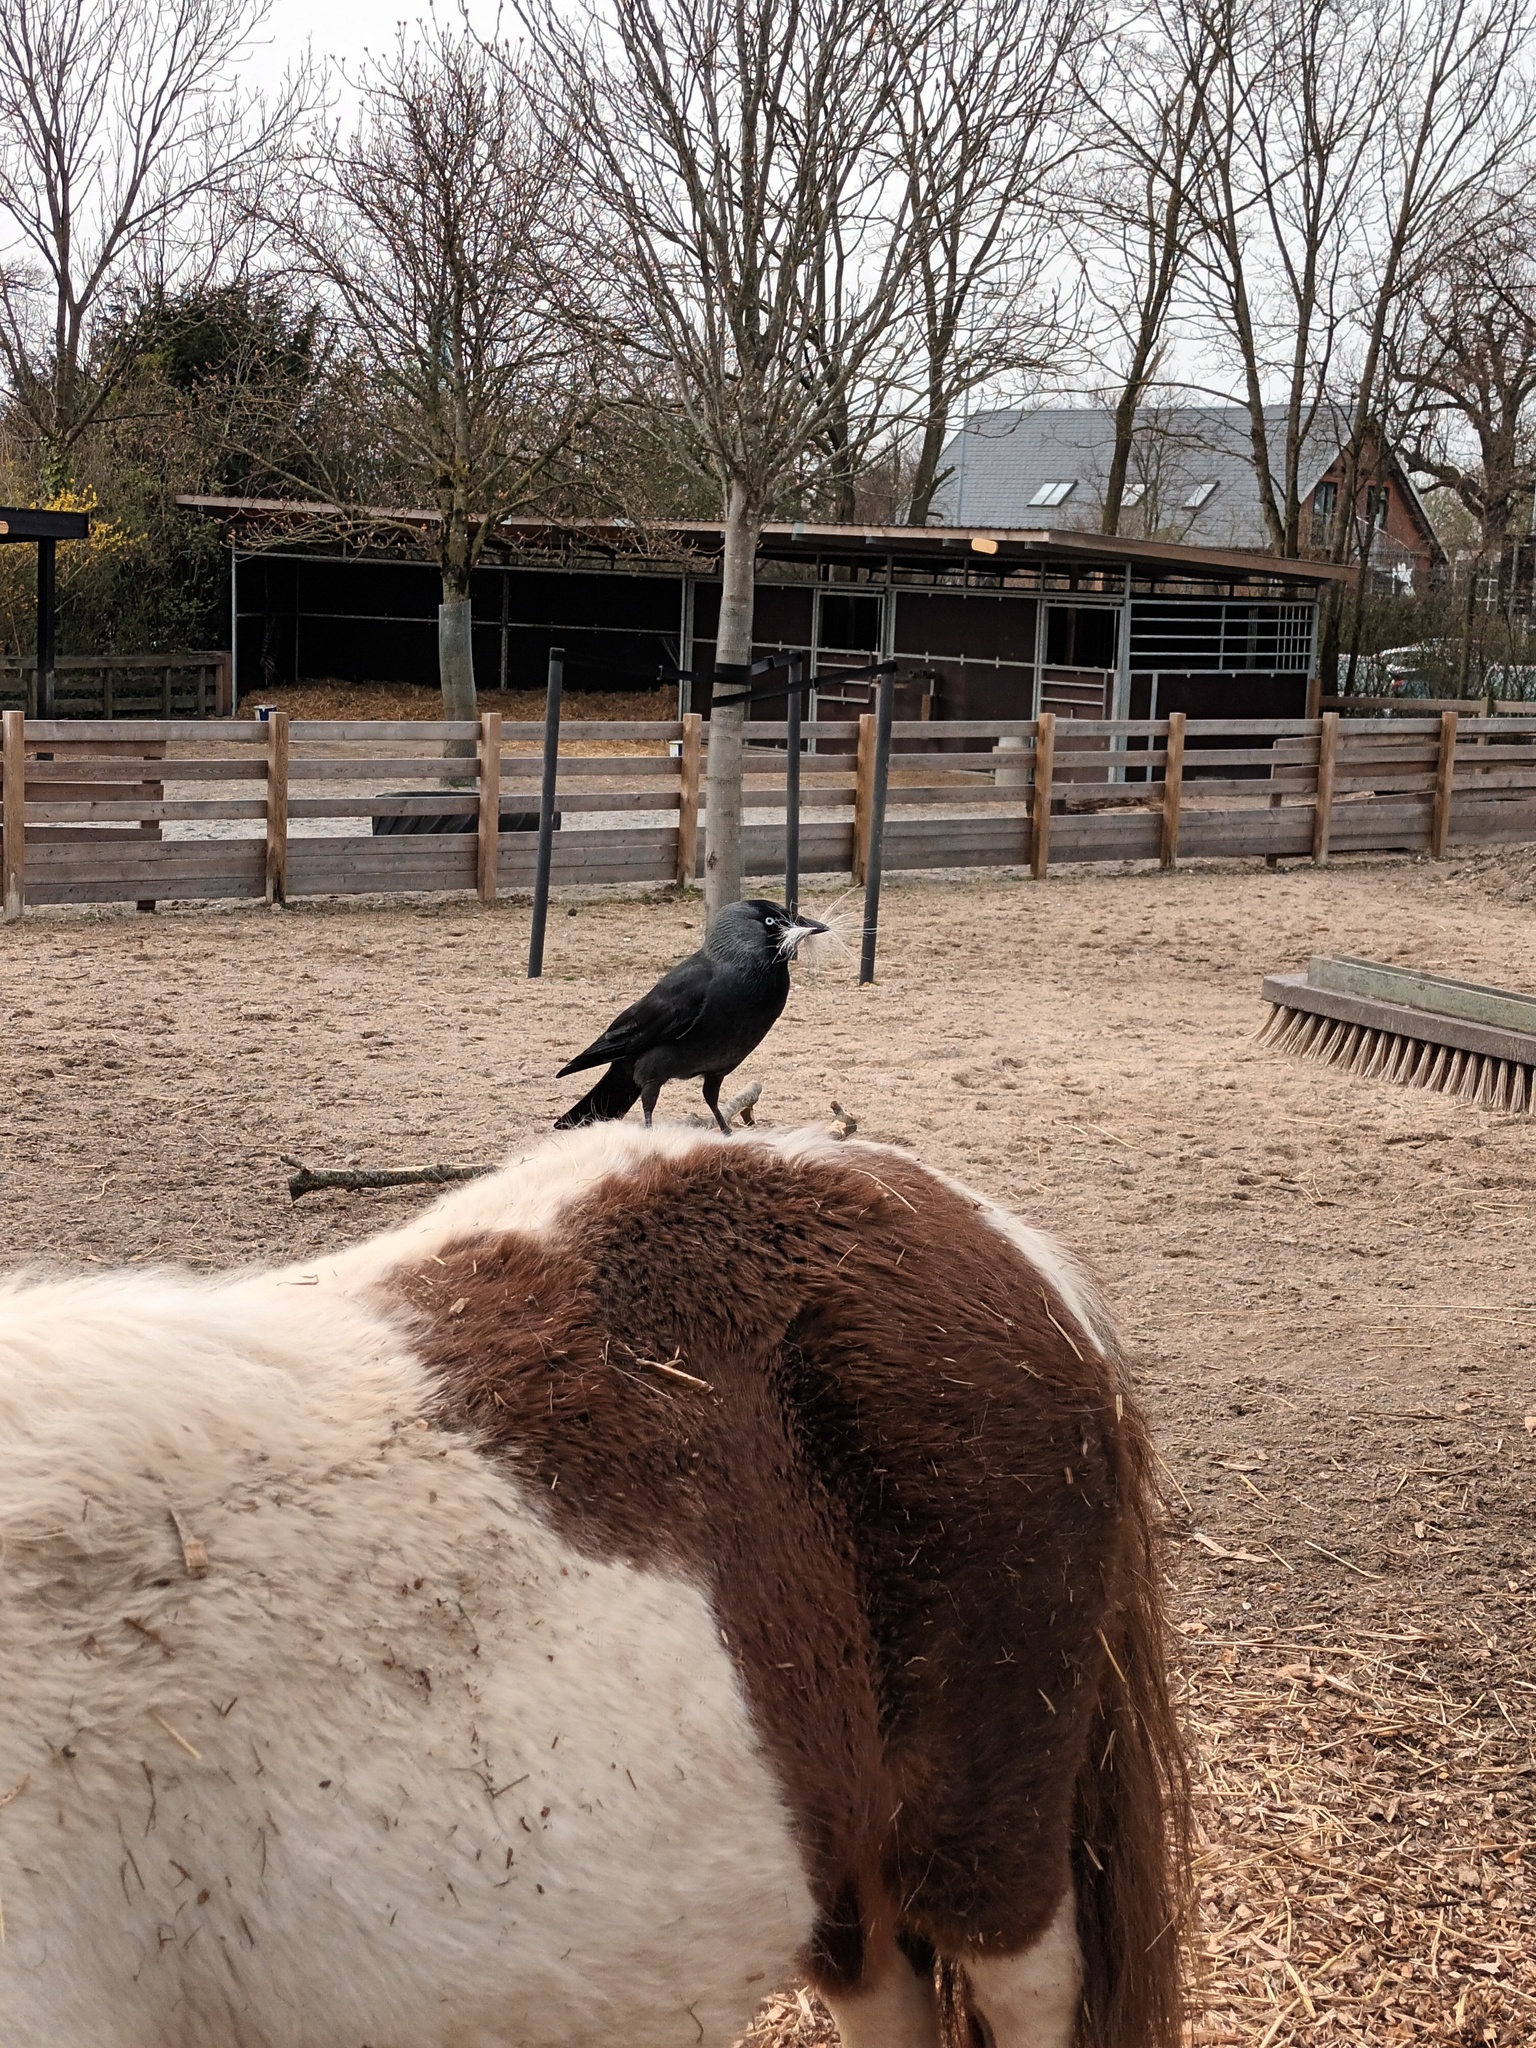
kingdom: Animalia
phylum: Chordata
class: Aves
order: Passeriformes
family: Corvidae
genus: Coloeus
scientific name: Coloeus monedula
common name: Western jackdaw
